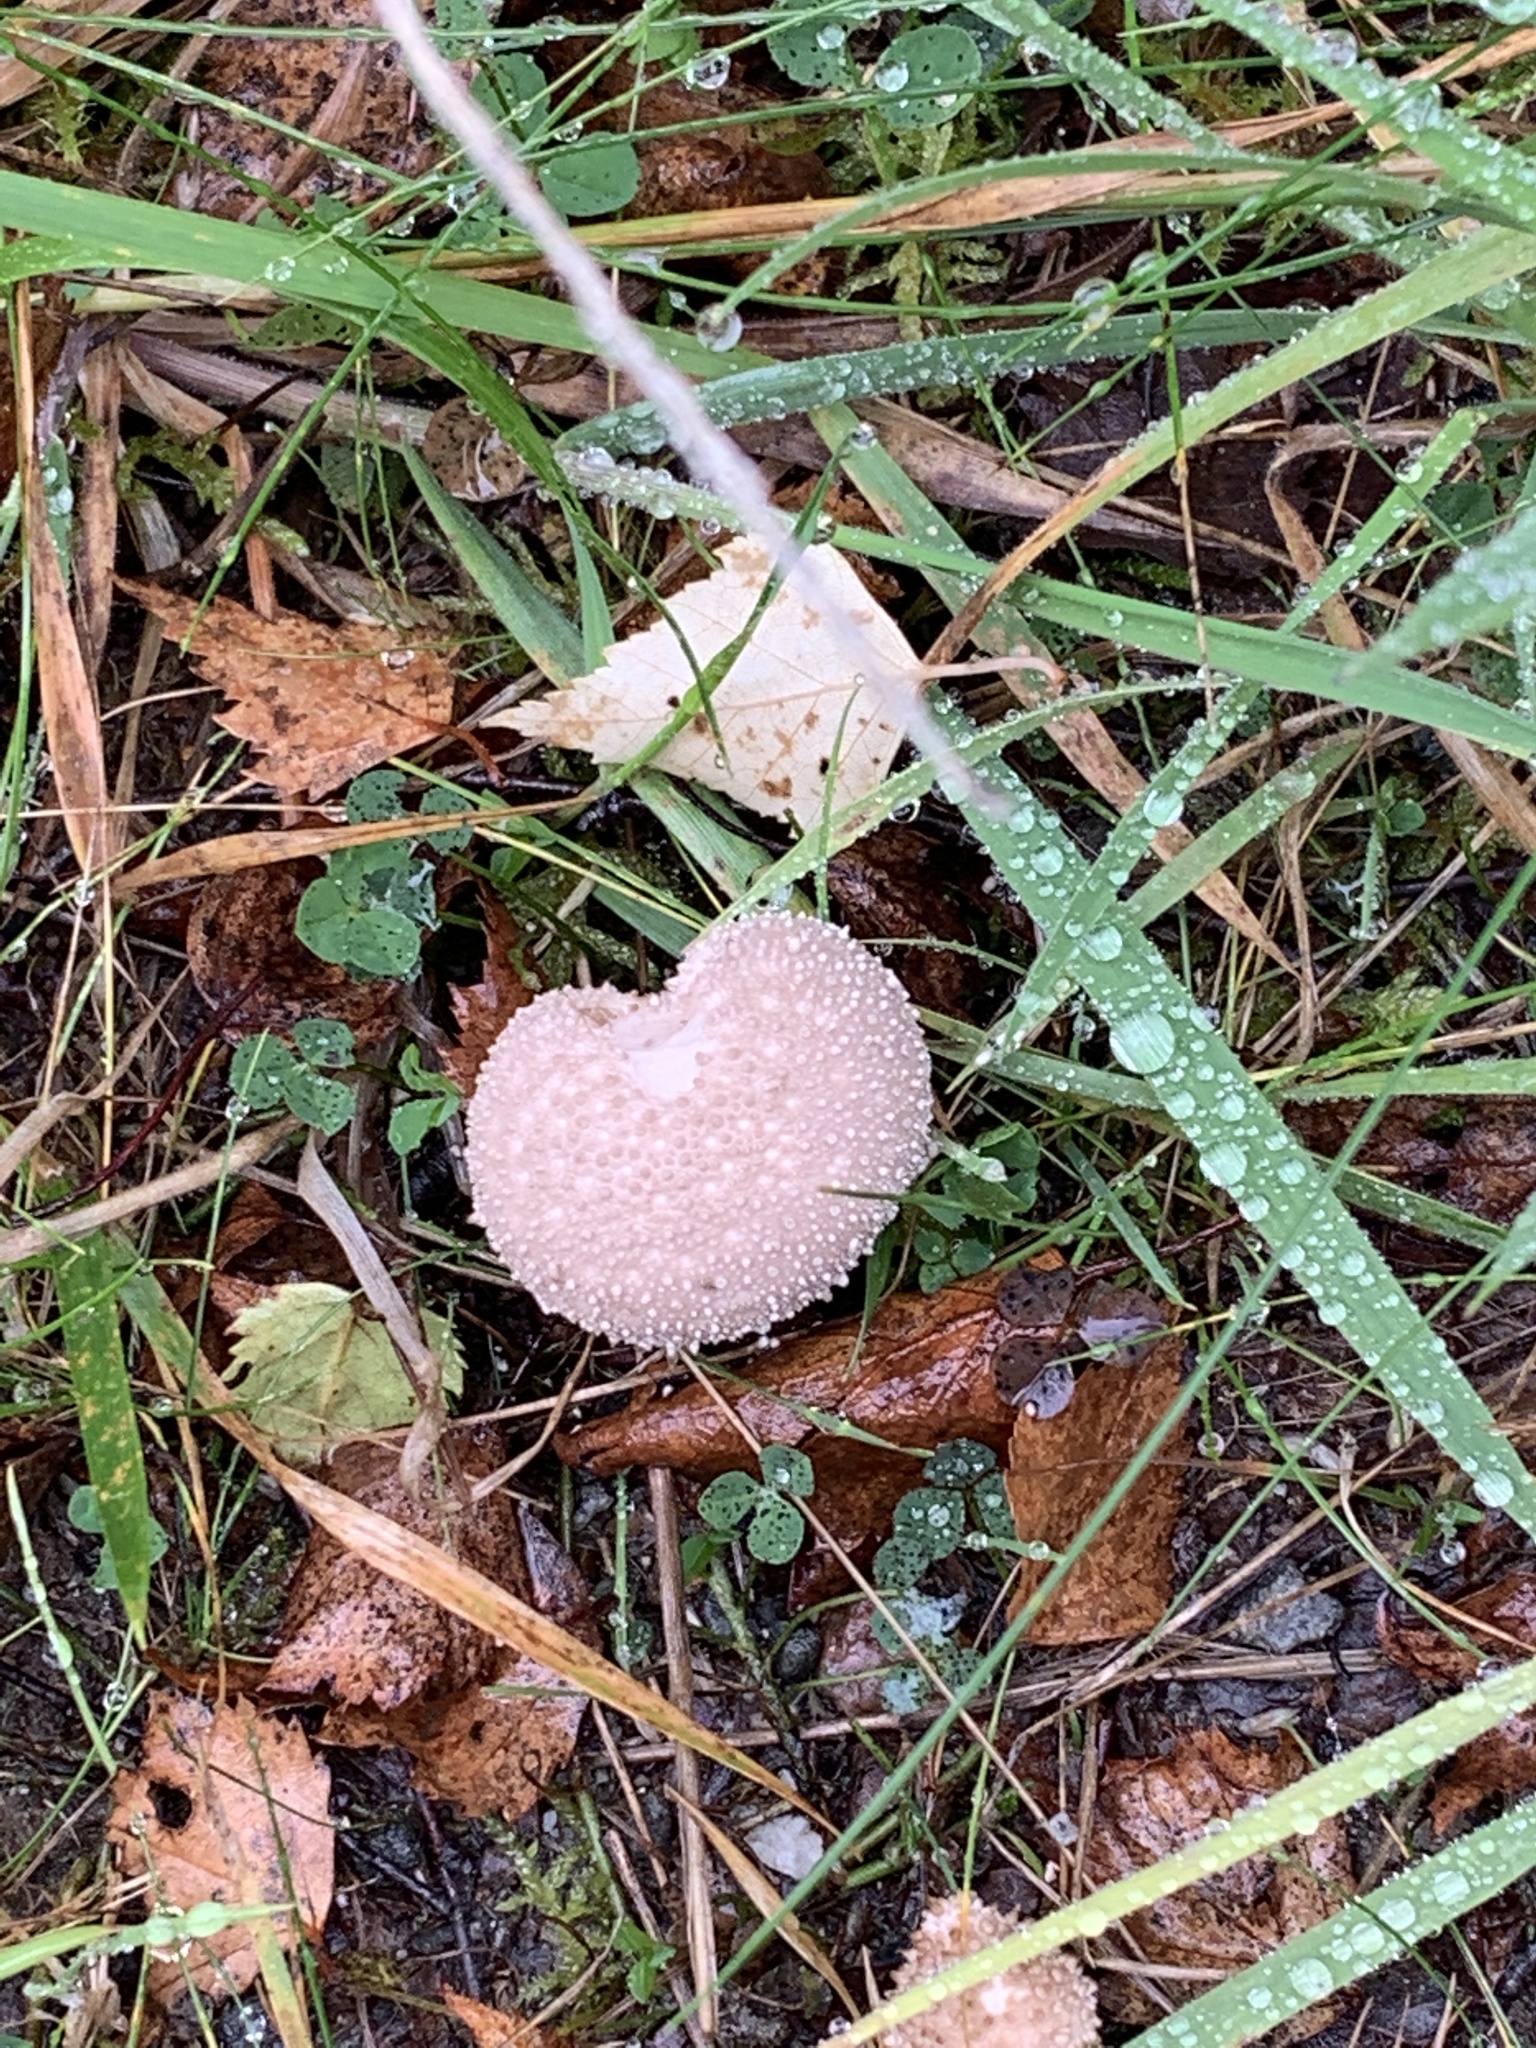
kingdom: Fungi
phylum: Basidiomycota
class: Agaricomycetes
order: Agaricales
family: Lycoperdaceae
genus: Lycoperdon
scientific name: Lycoperdon perlatum
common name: Common puffball
